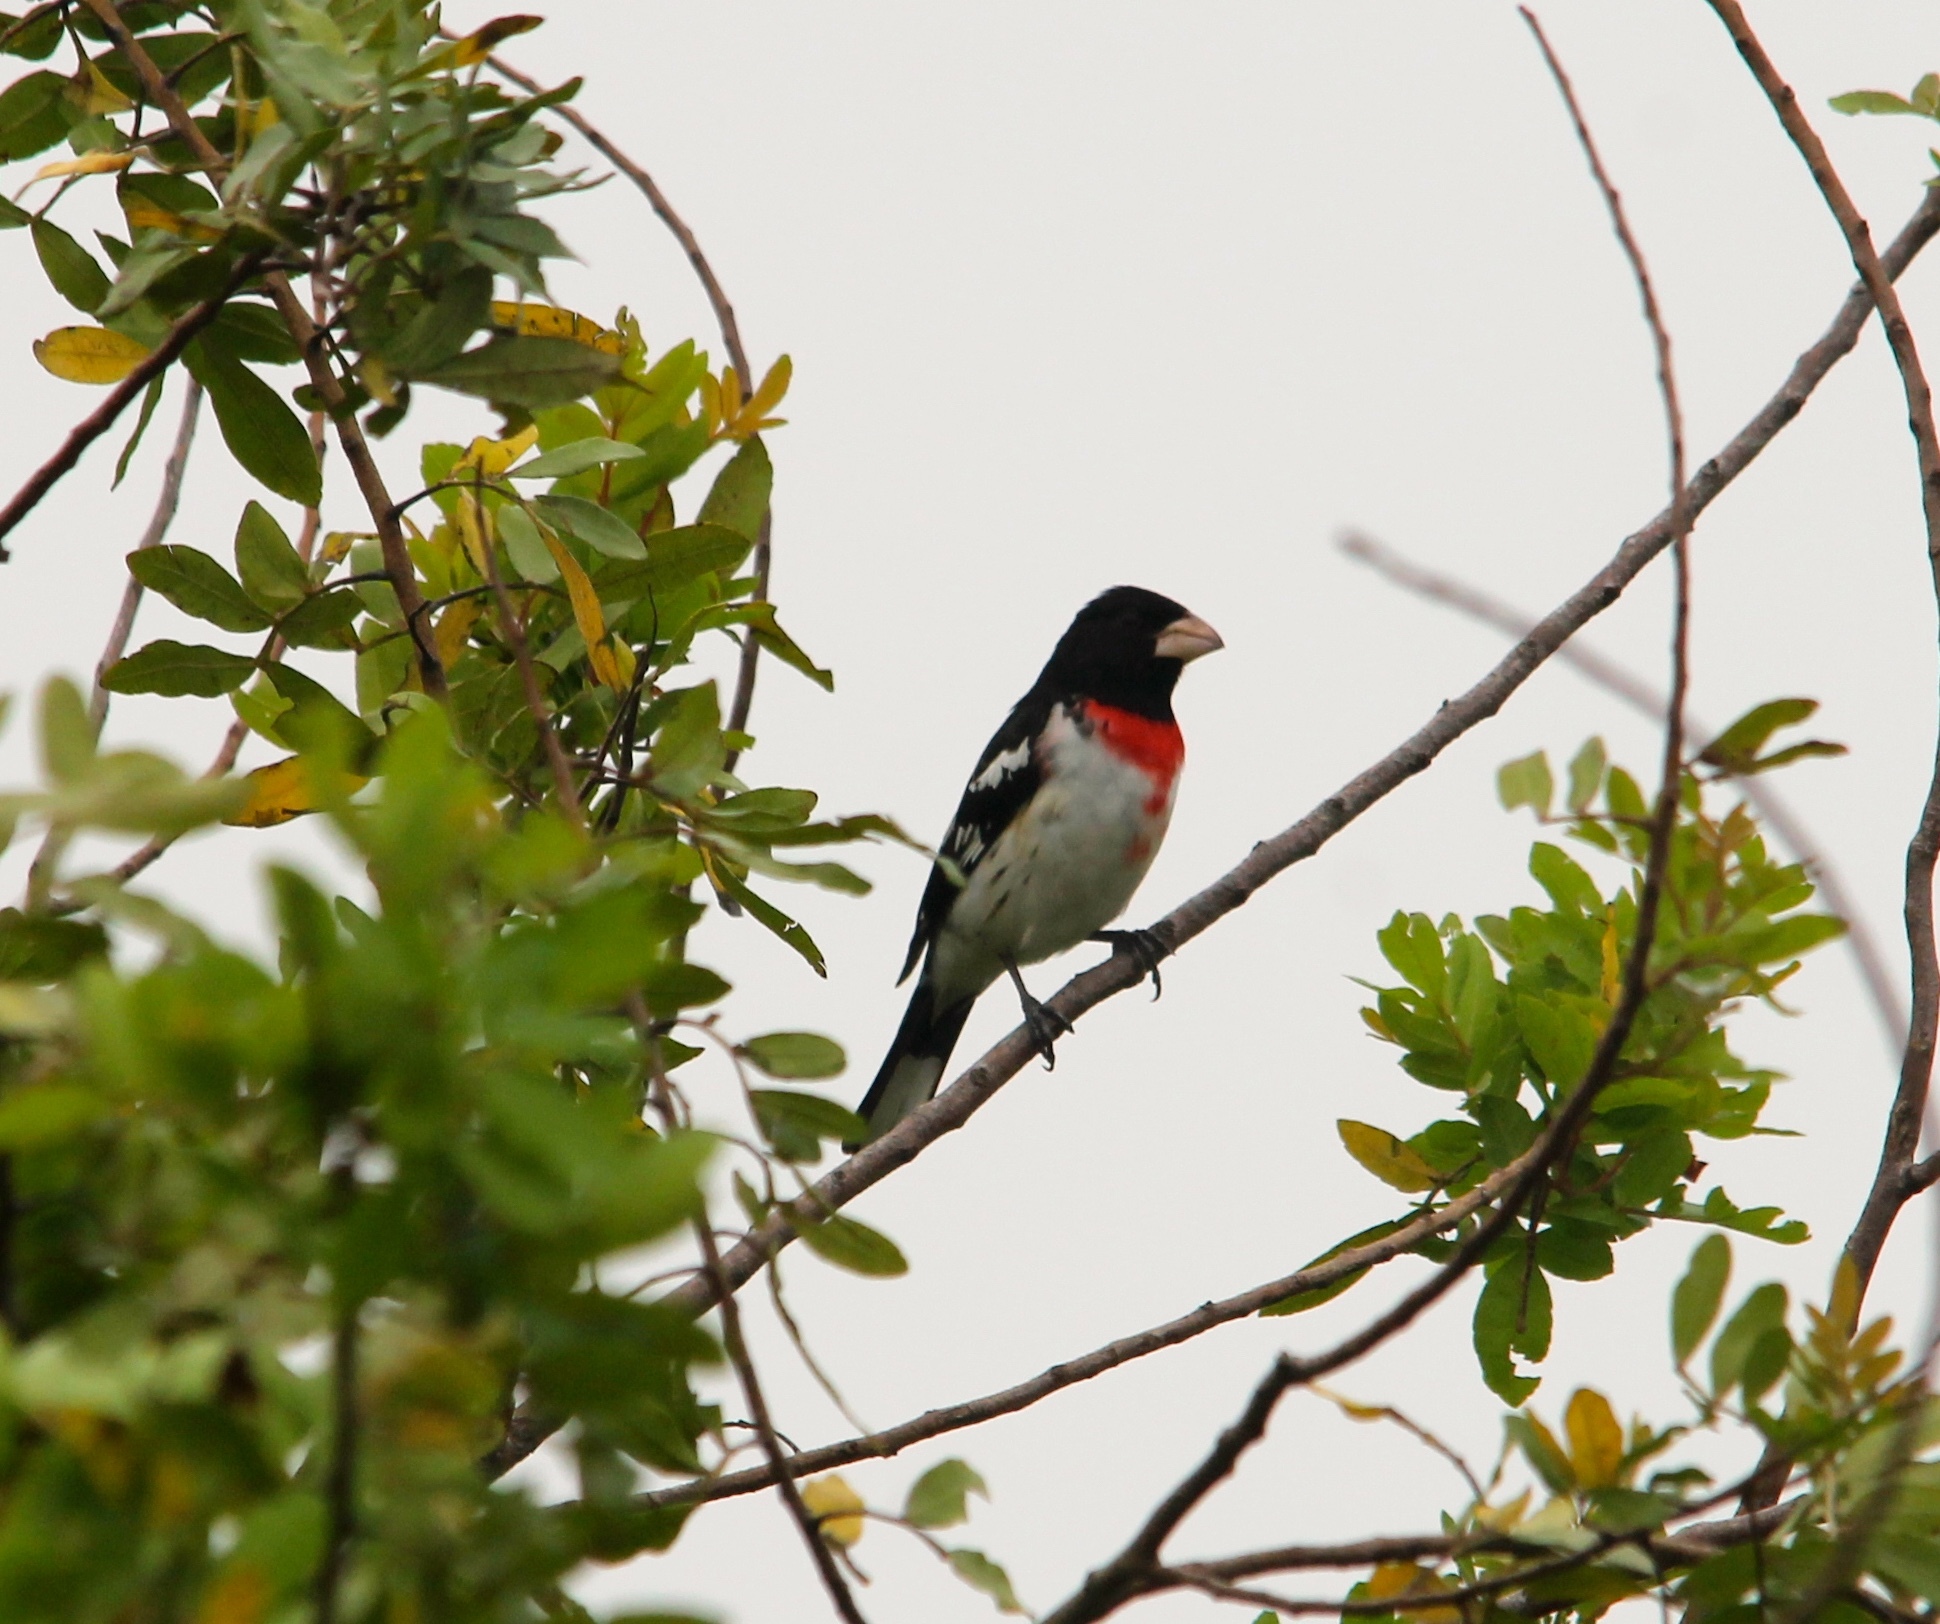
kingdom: Animalia
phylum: Chordata
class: Aves
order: Passeriformes
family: Cardinalidae
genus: Pheucticus
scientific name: Pheucticus ludovicianus
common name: Rose-breasted grosbeak
